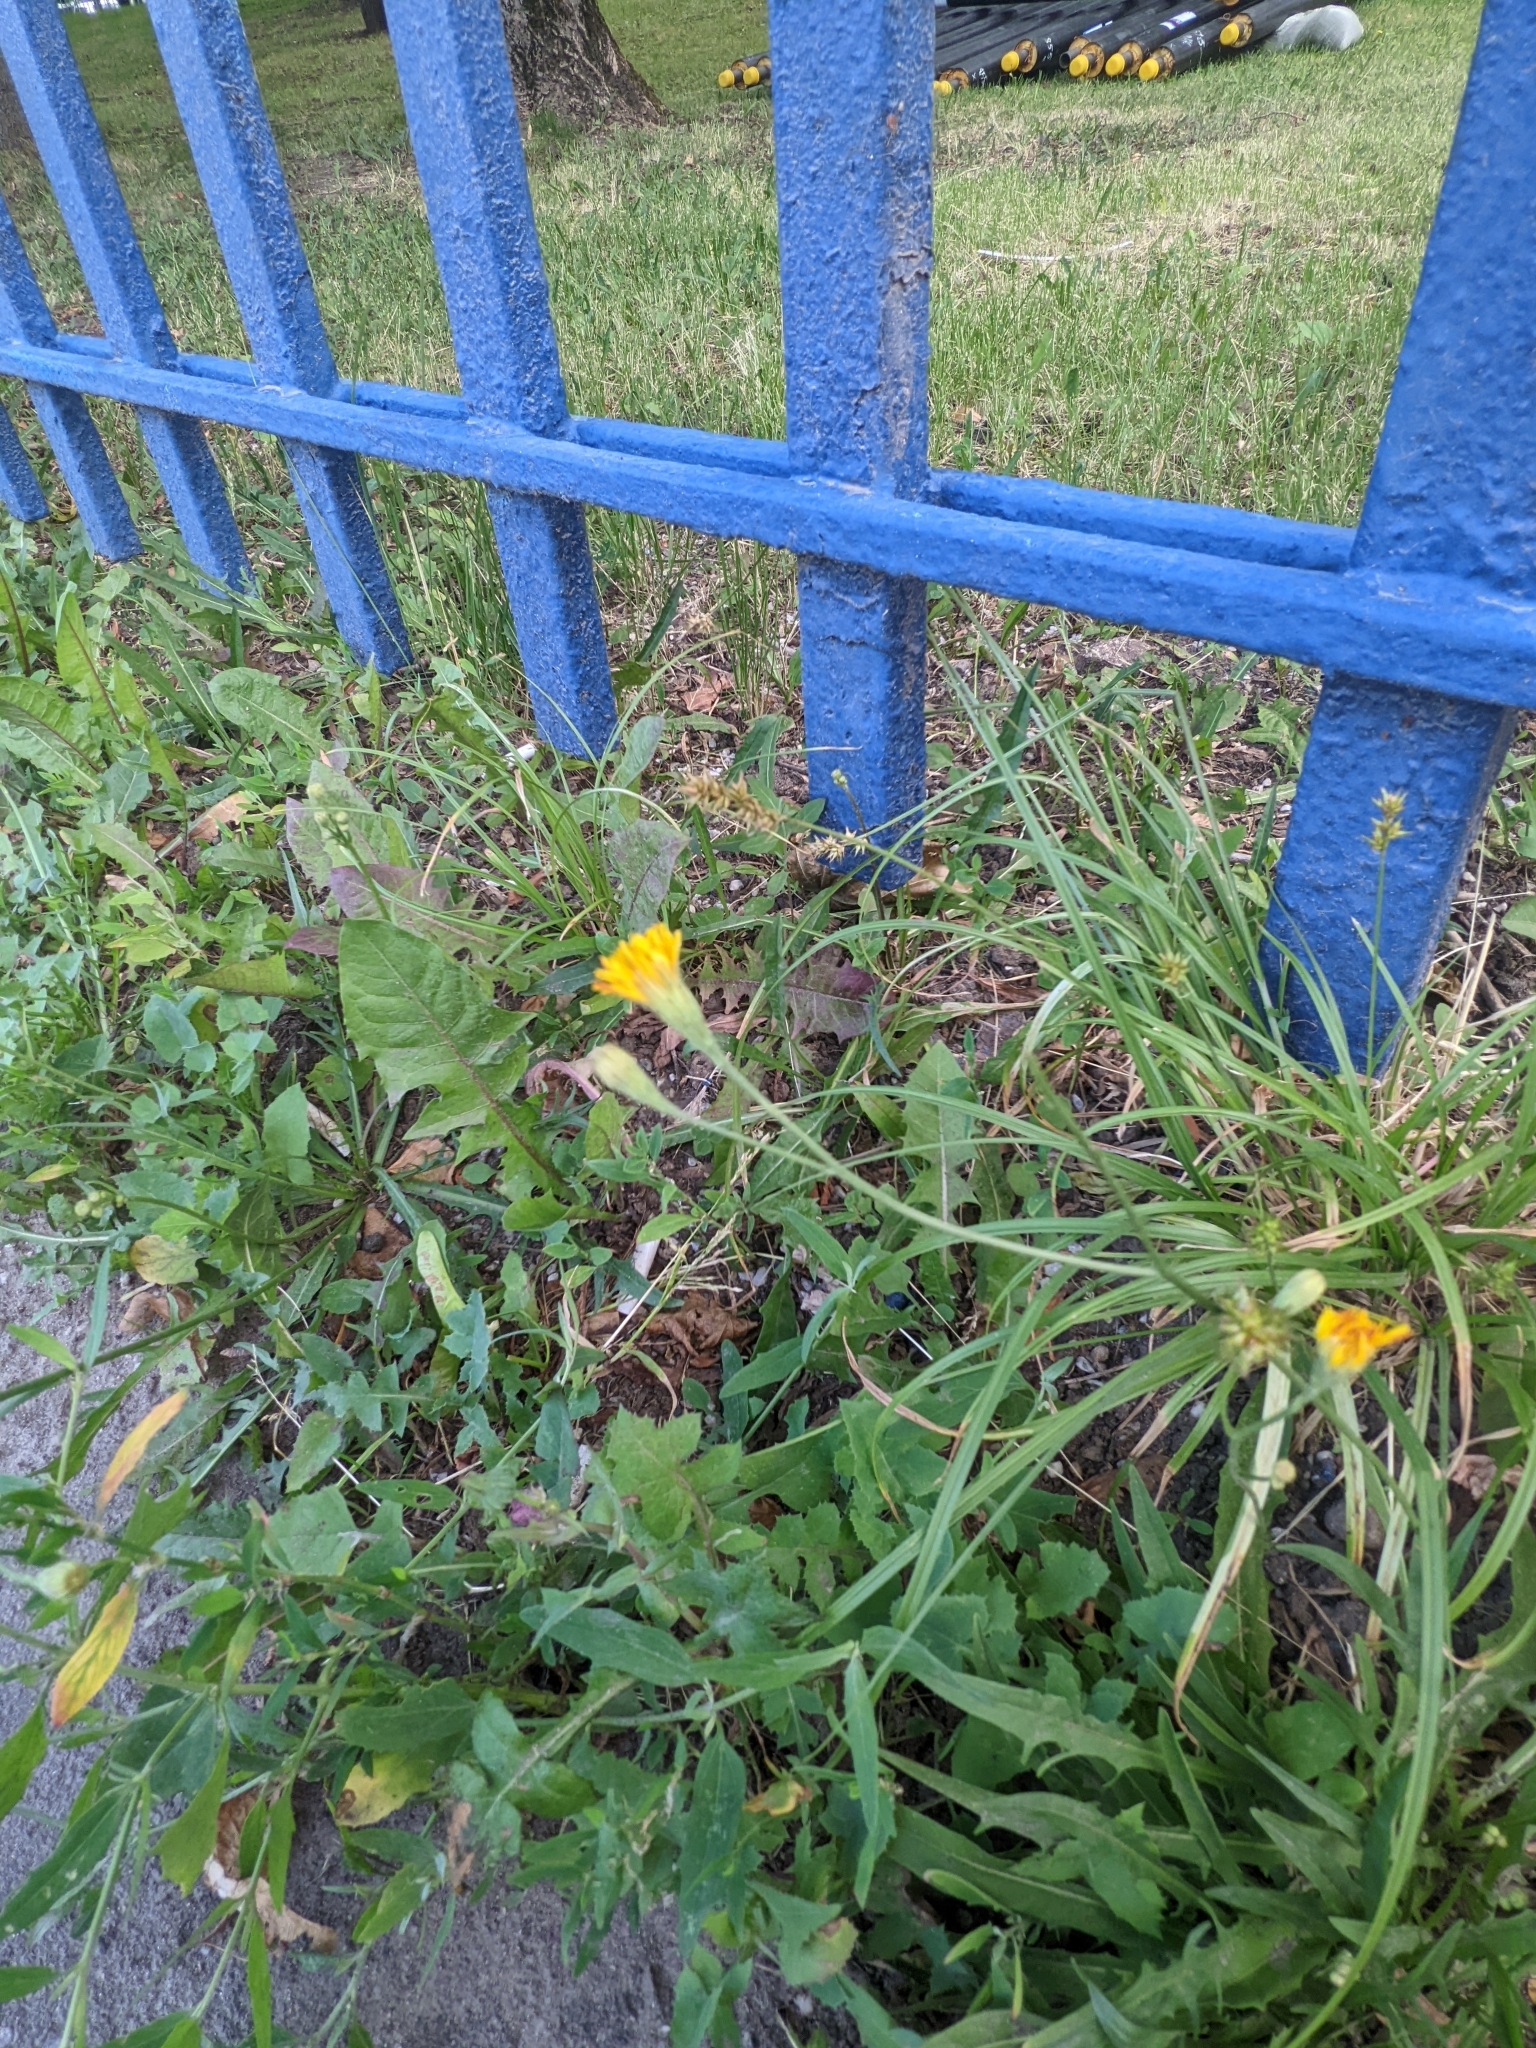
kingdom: Plantae
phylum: Tracheophyta
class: Magnoliopsida
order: Asterales
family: Asteraceae
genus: Scorzoneroides
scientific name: Scorzoneroides autumnalis
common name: Autumn hawkbit
